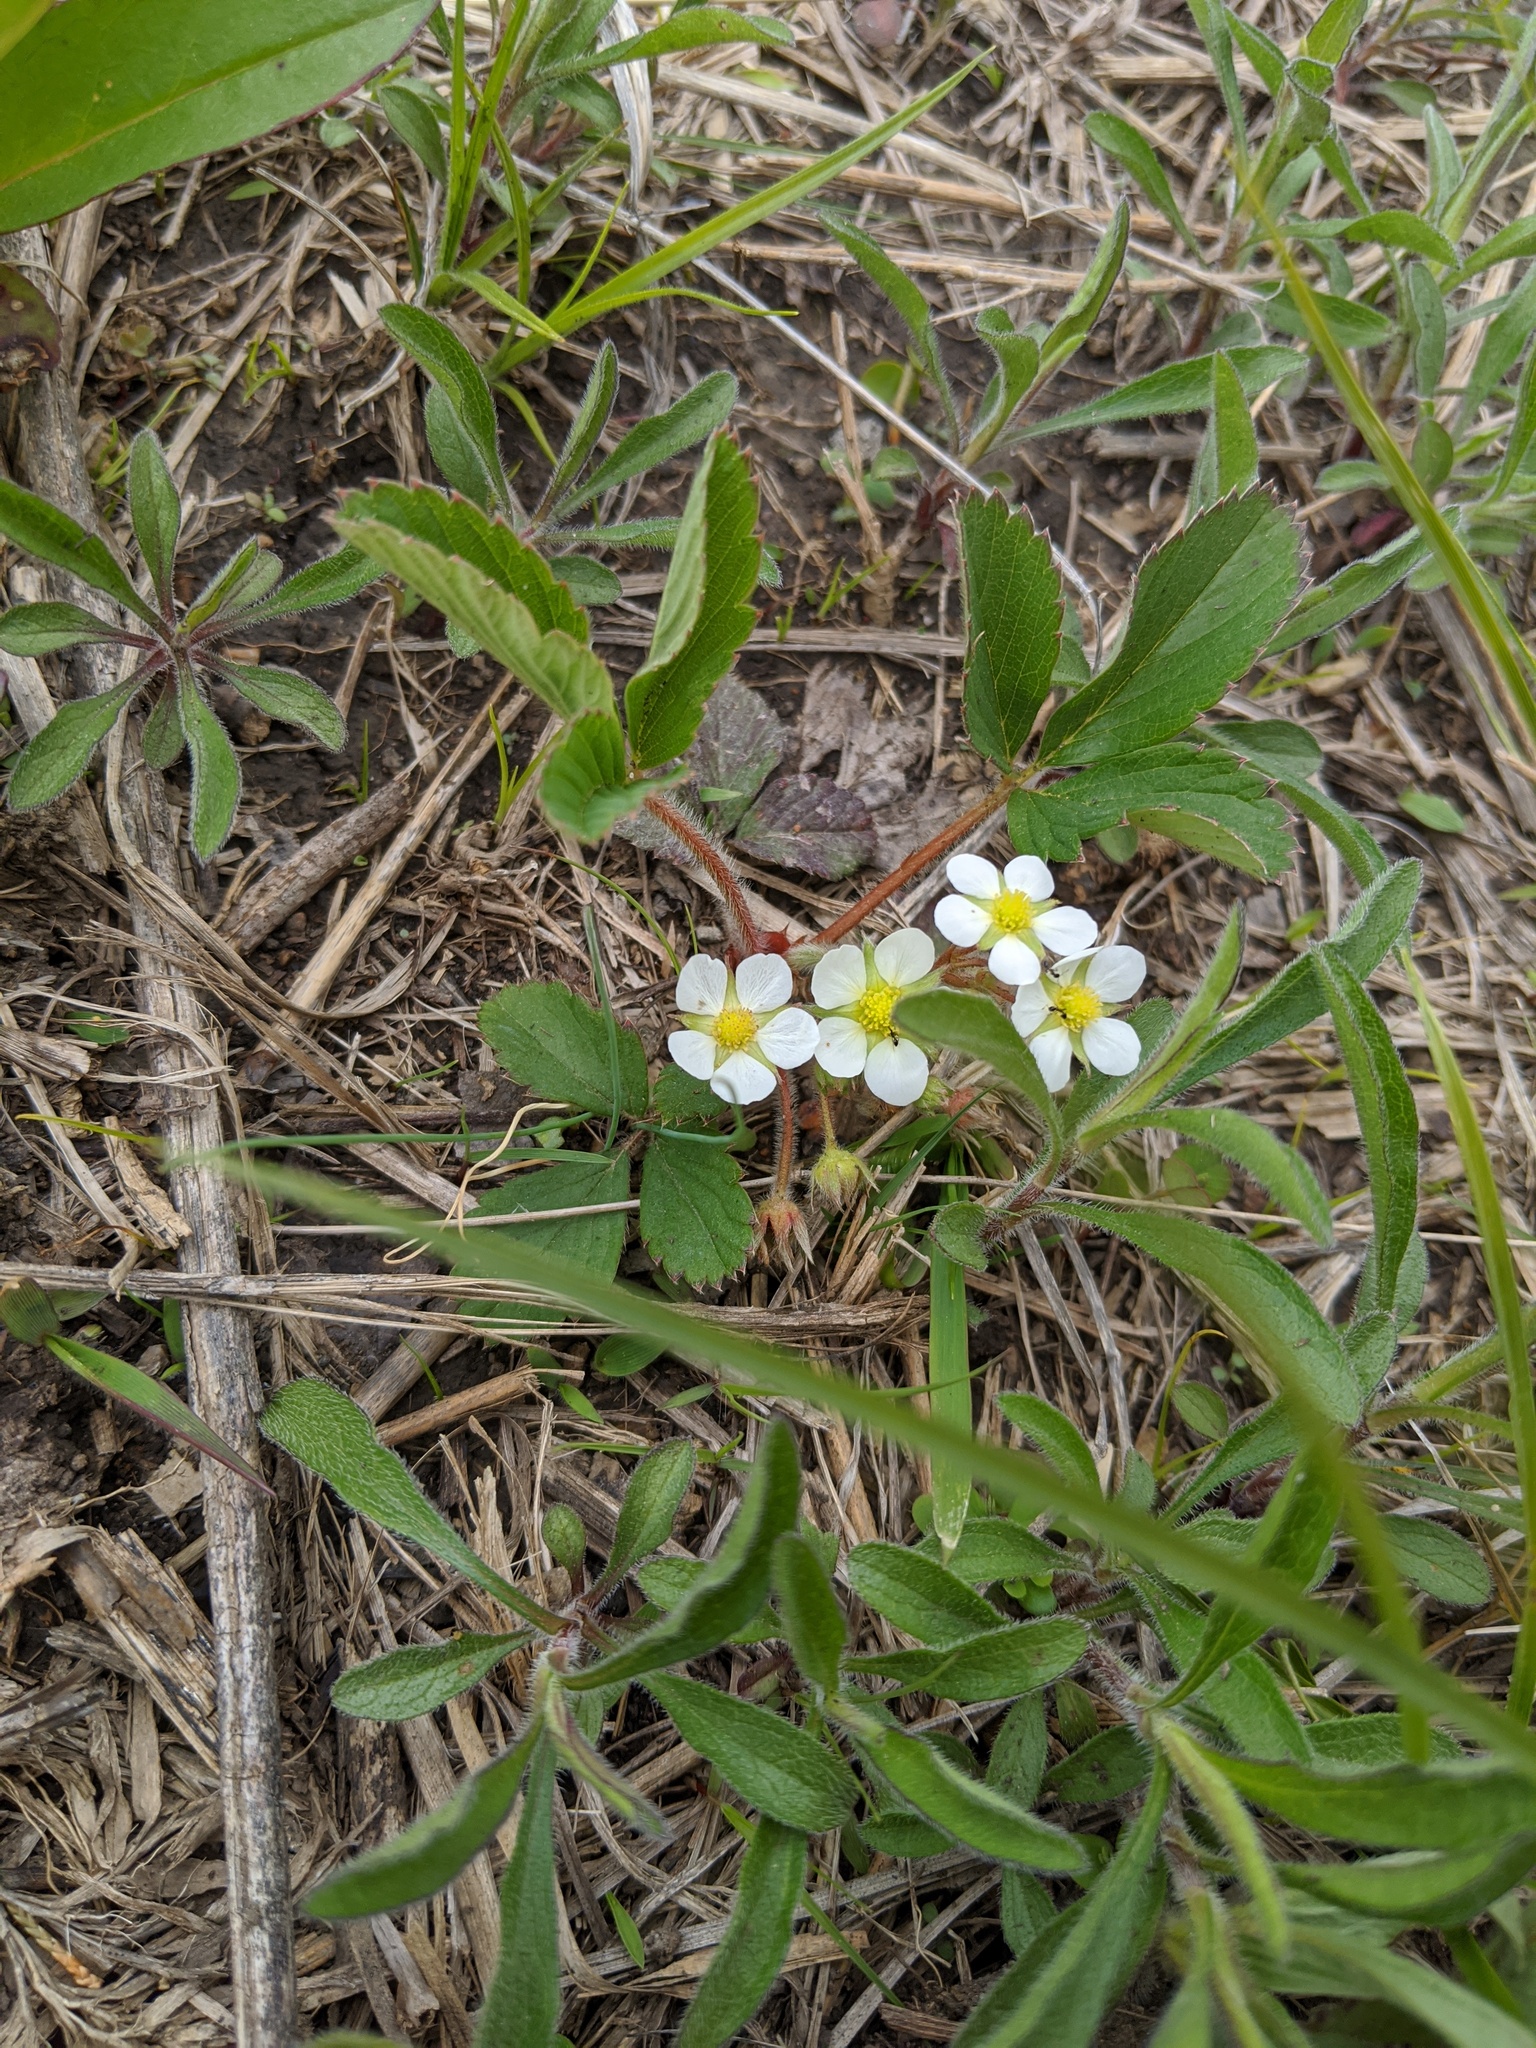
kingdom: Plantae
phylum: Tracheophyta
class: Magnoliopsida
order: Rosales
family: Rosaceae
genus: Fragaria
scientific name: Fragaria virginiana
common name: Thickleaved wild strawberry
